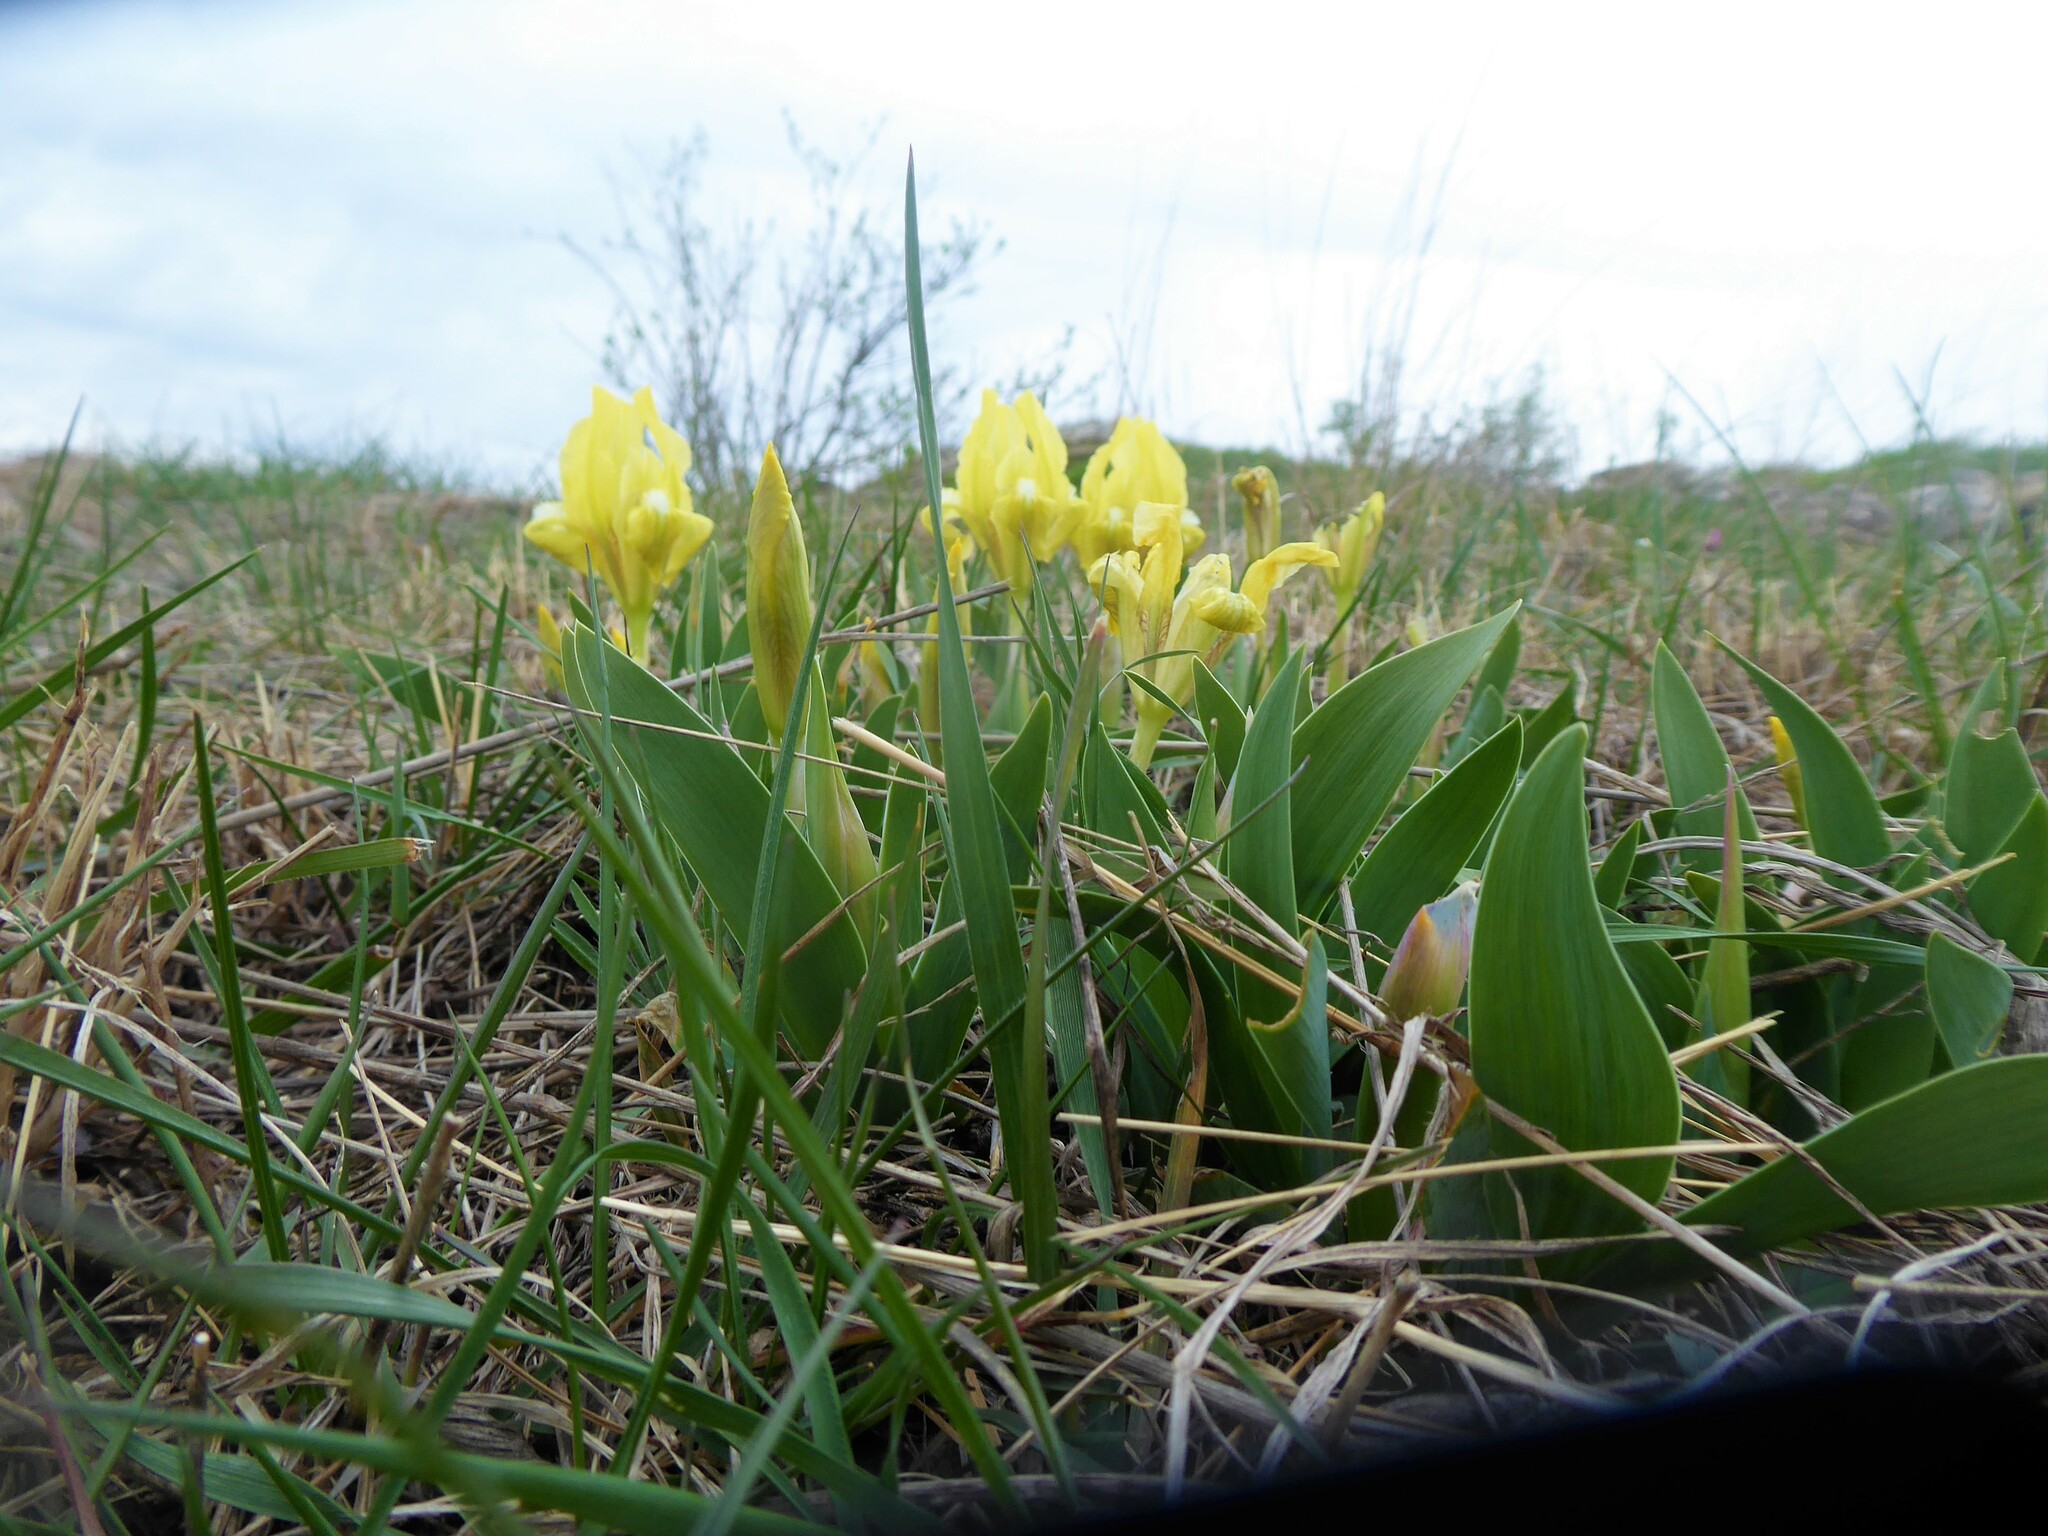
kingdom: Plantae
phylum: Tracheophyta
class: Liliopsida
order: Asparagales
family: Iridaceae
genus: Iris
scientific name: Iris pumila
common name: Dwarf iris
